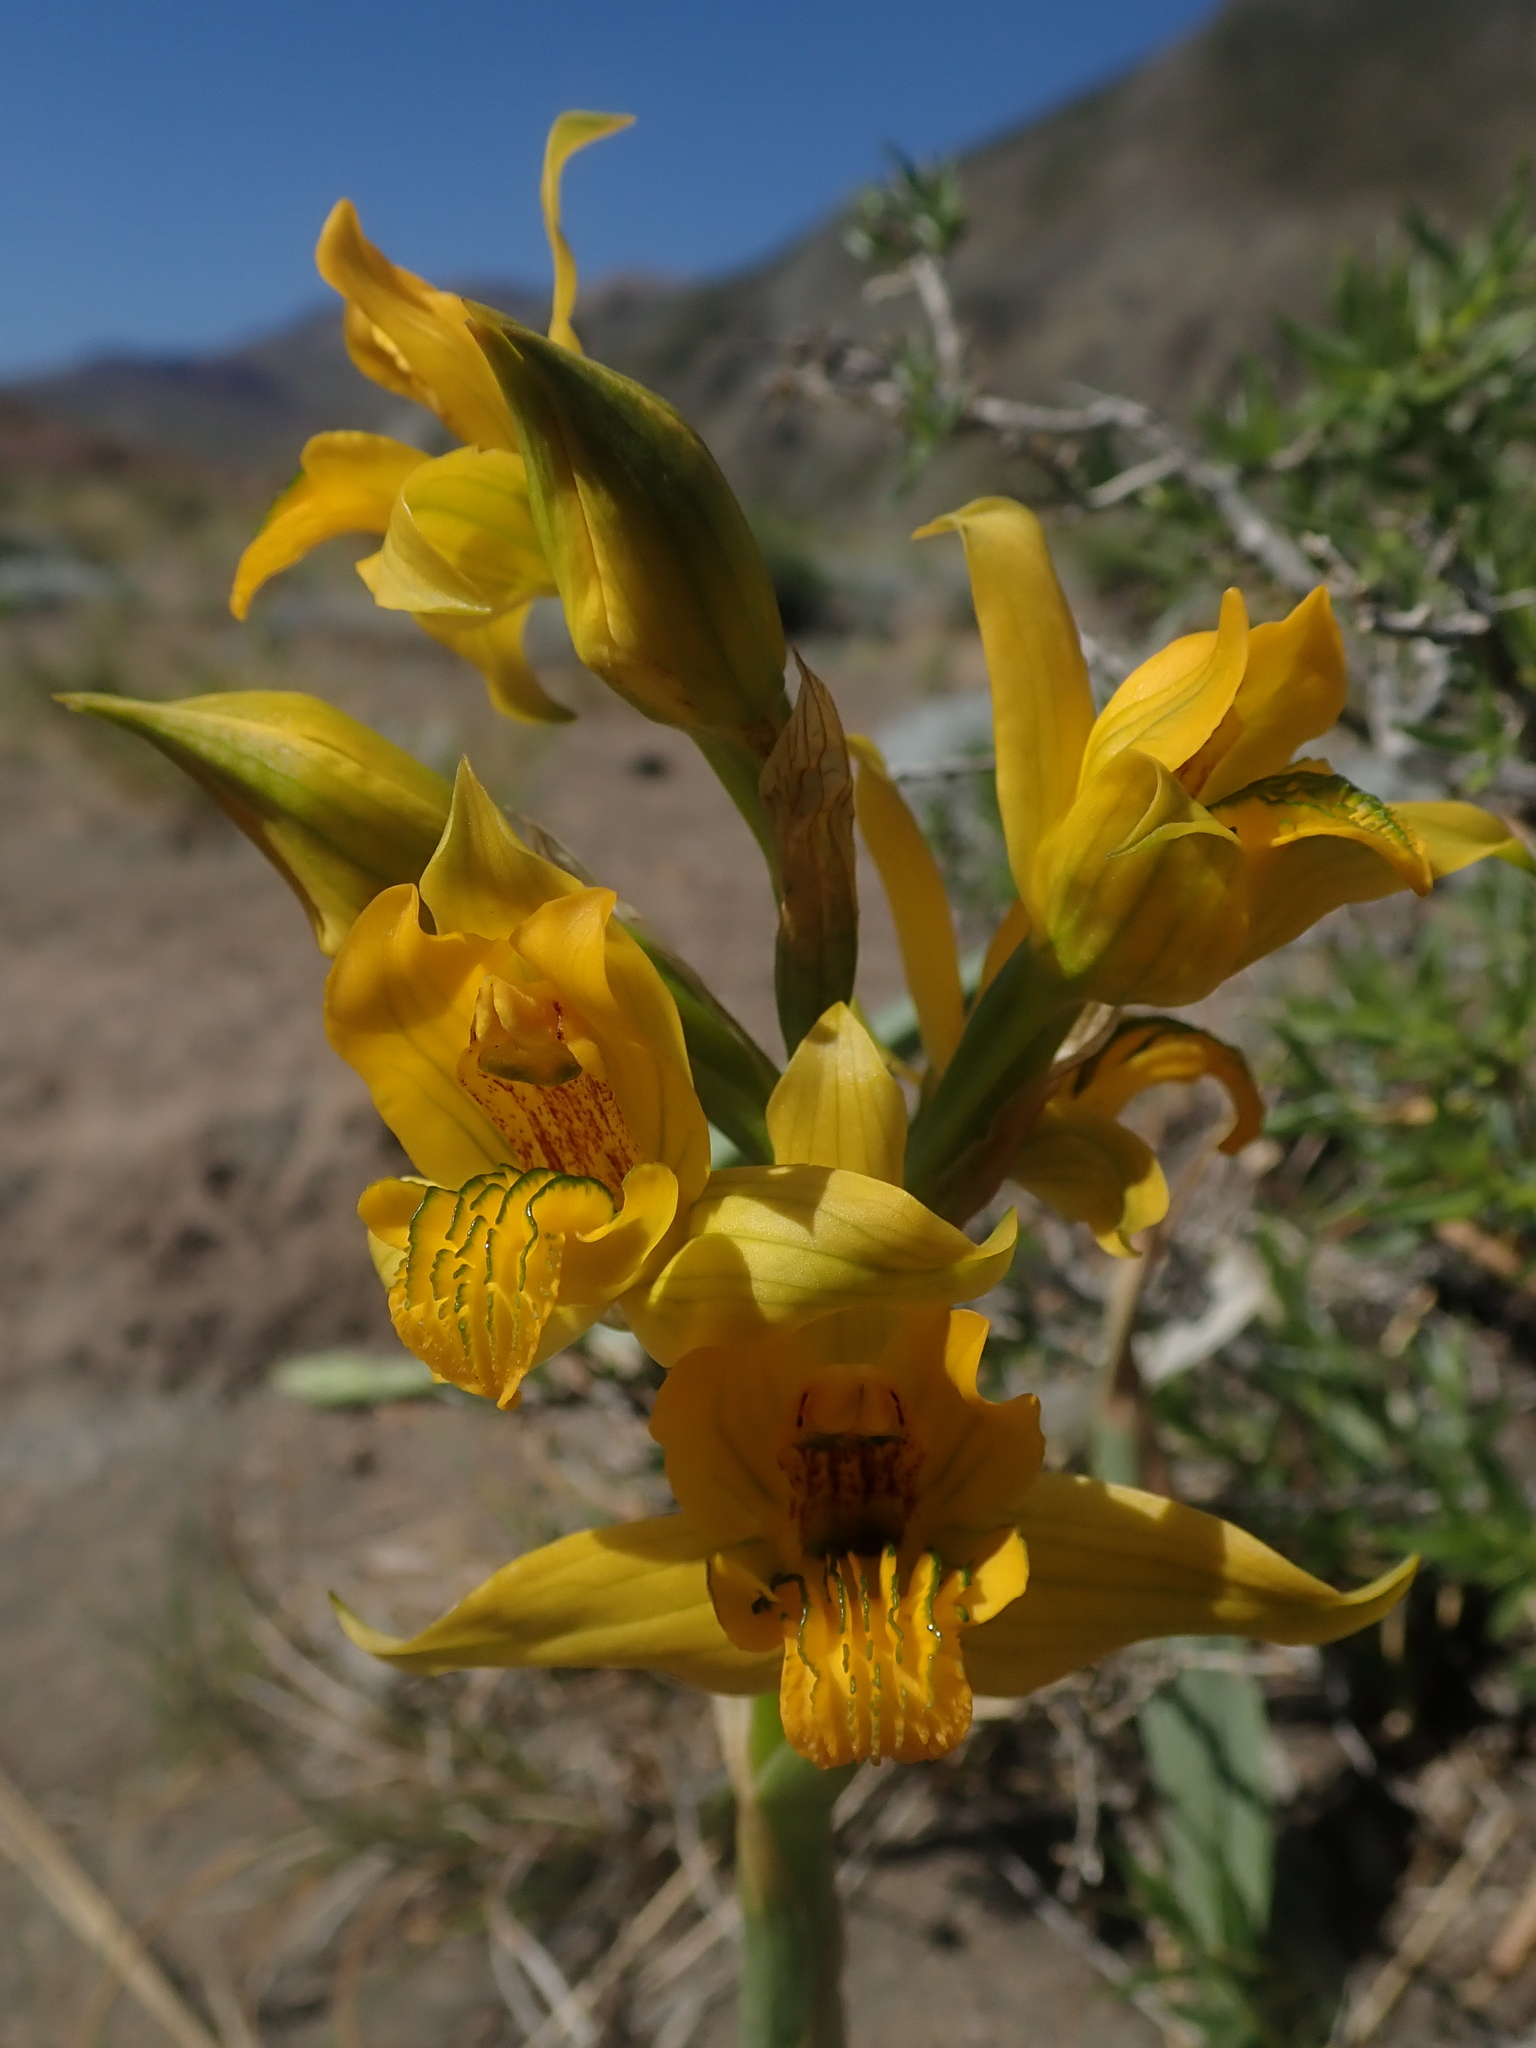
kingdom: Plantae
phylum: Tracheophyta
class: Liliopsida
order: Asparagales
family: Orchidaceae
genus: Chloraea
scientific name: Chloraea alpina
